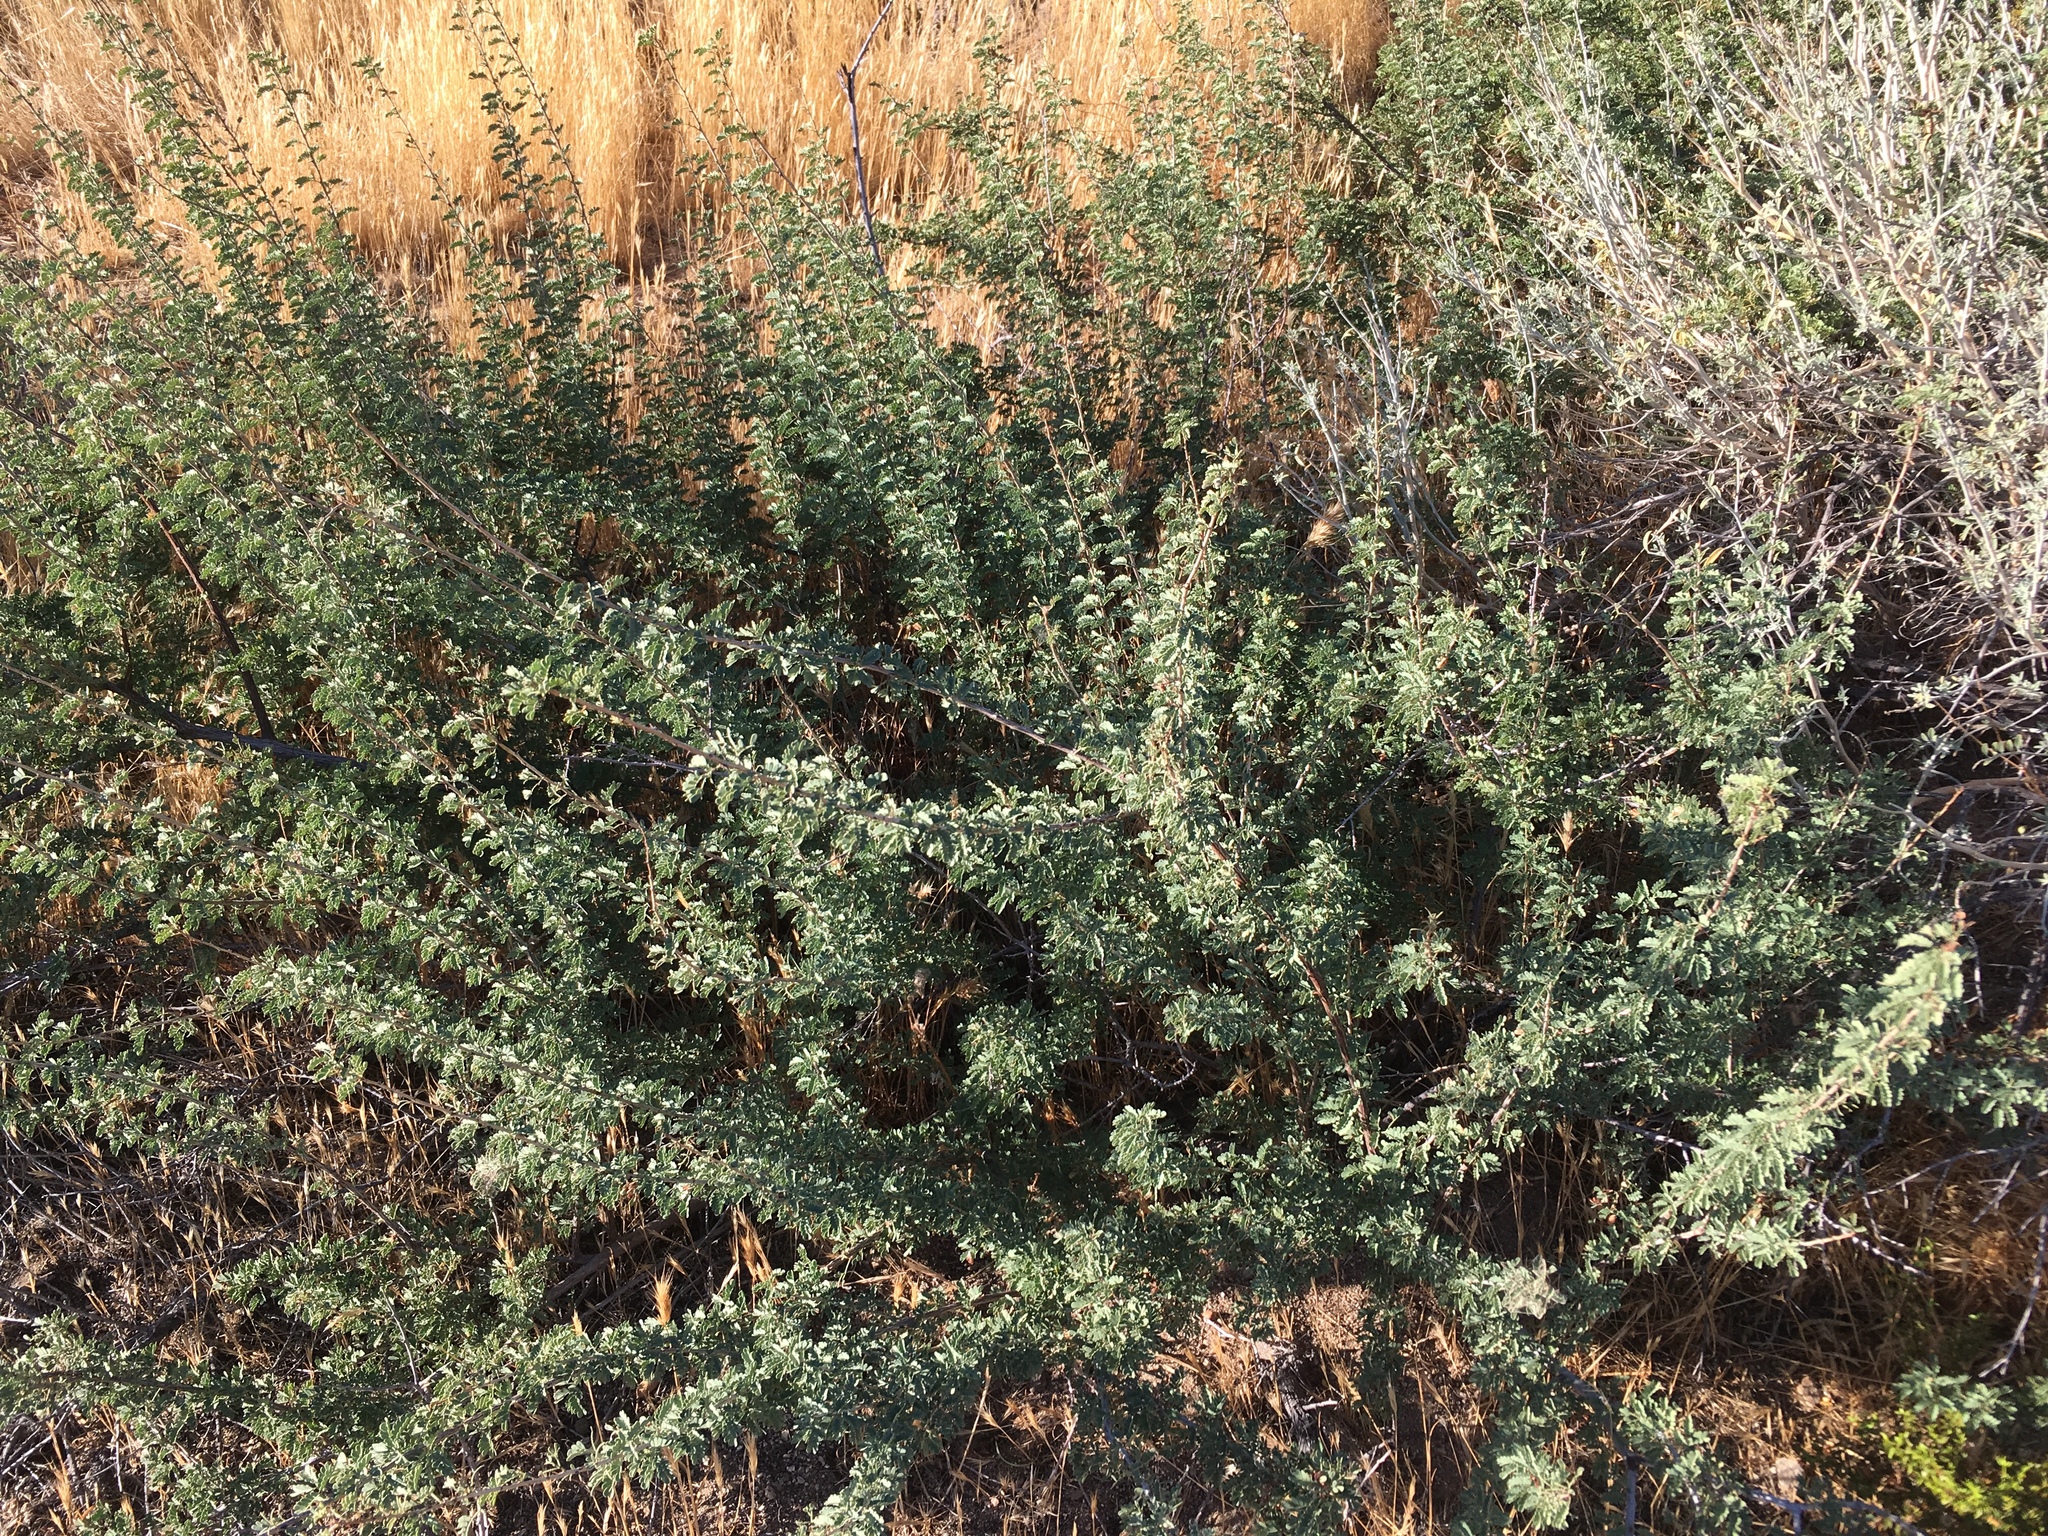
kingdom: Plantae
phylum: Tracheophyta
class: Magnoliopsida
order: Fabales
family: Fabaceae
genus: Senegalia
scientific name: Senegalia greggii
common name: Texas-mimosa
